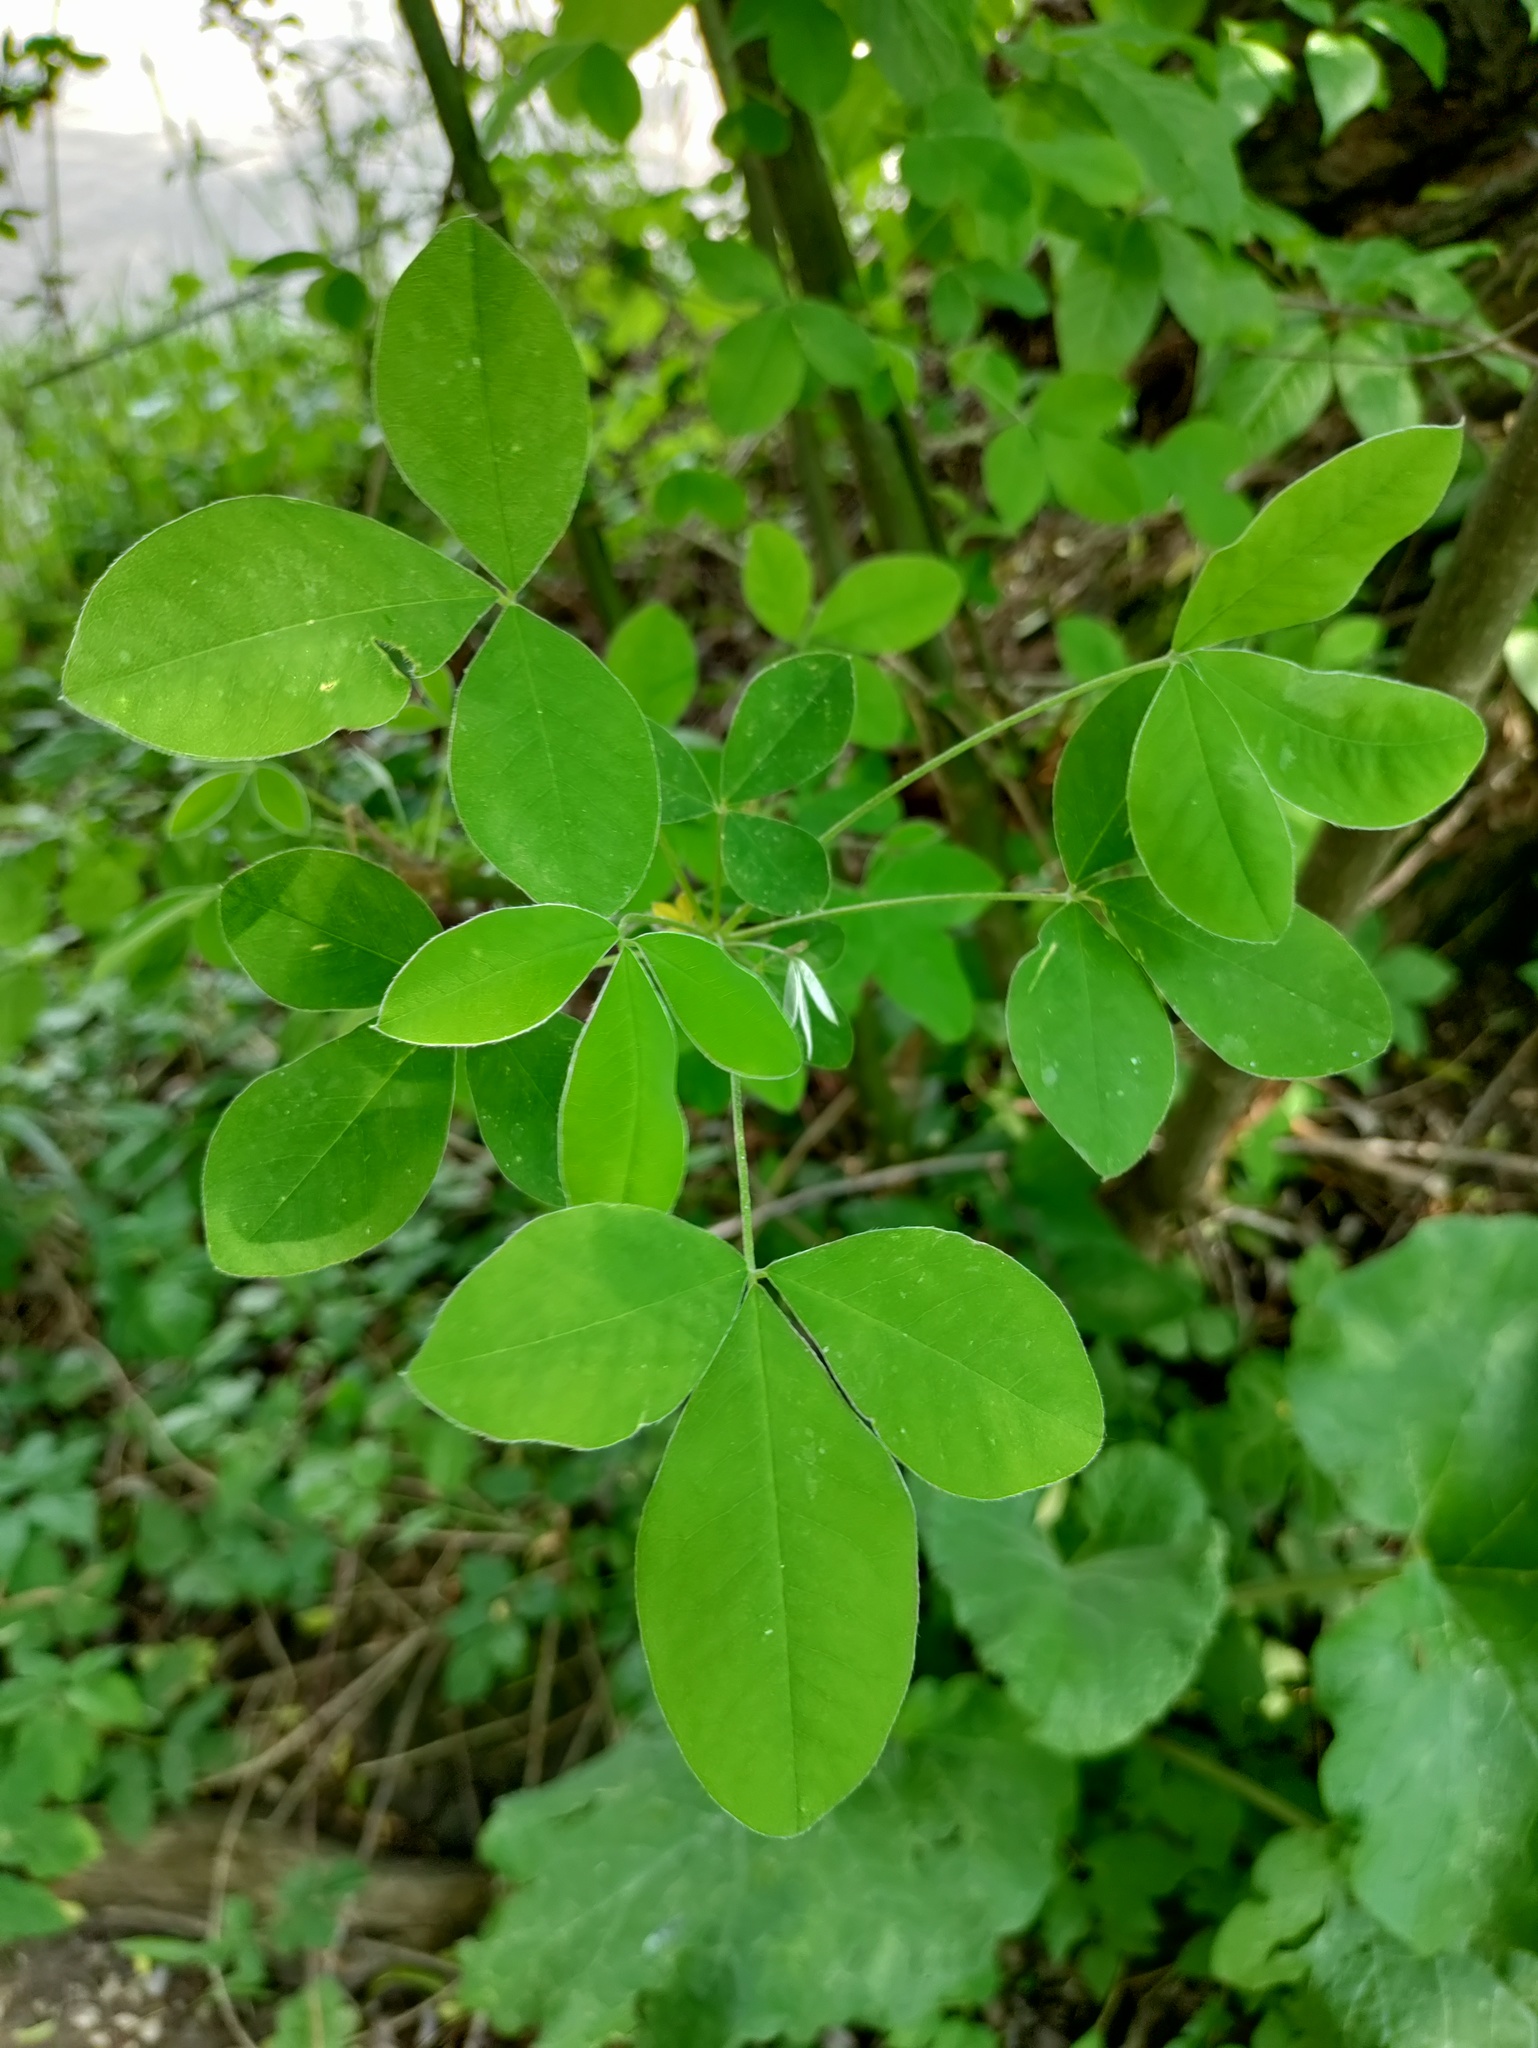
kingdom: Plantae
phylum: Tracheophyta
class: Magnoliopsida
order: Fabales
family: Fabaceae
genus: Laburnum
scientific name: Laburnum anagyroides
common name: Laburnum
